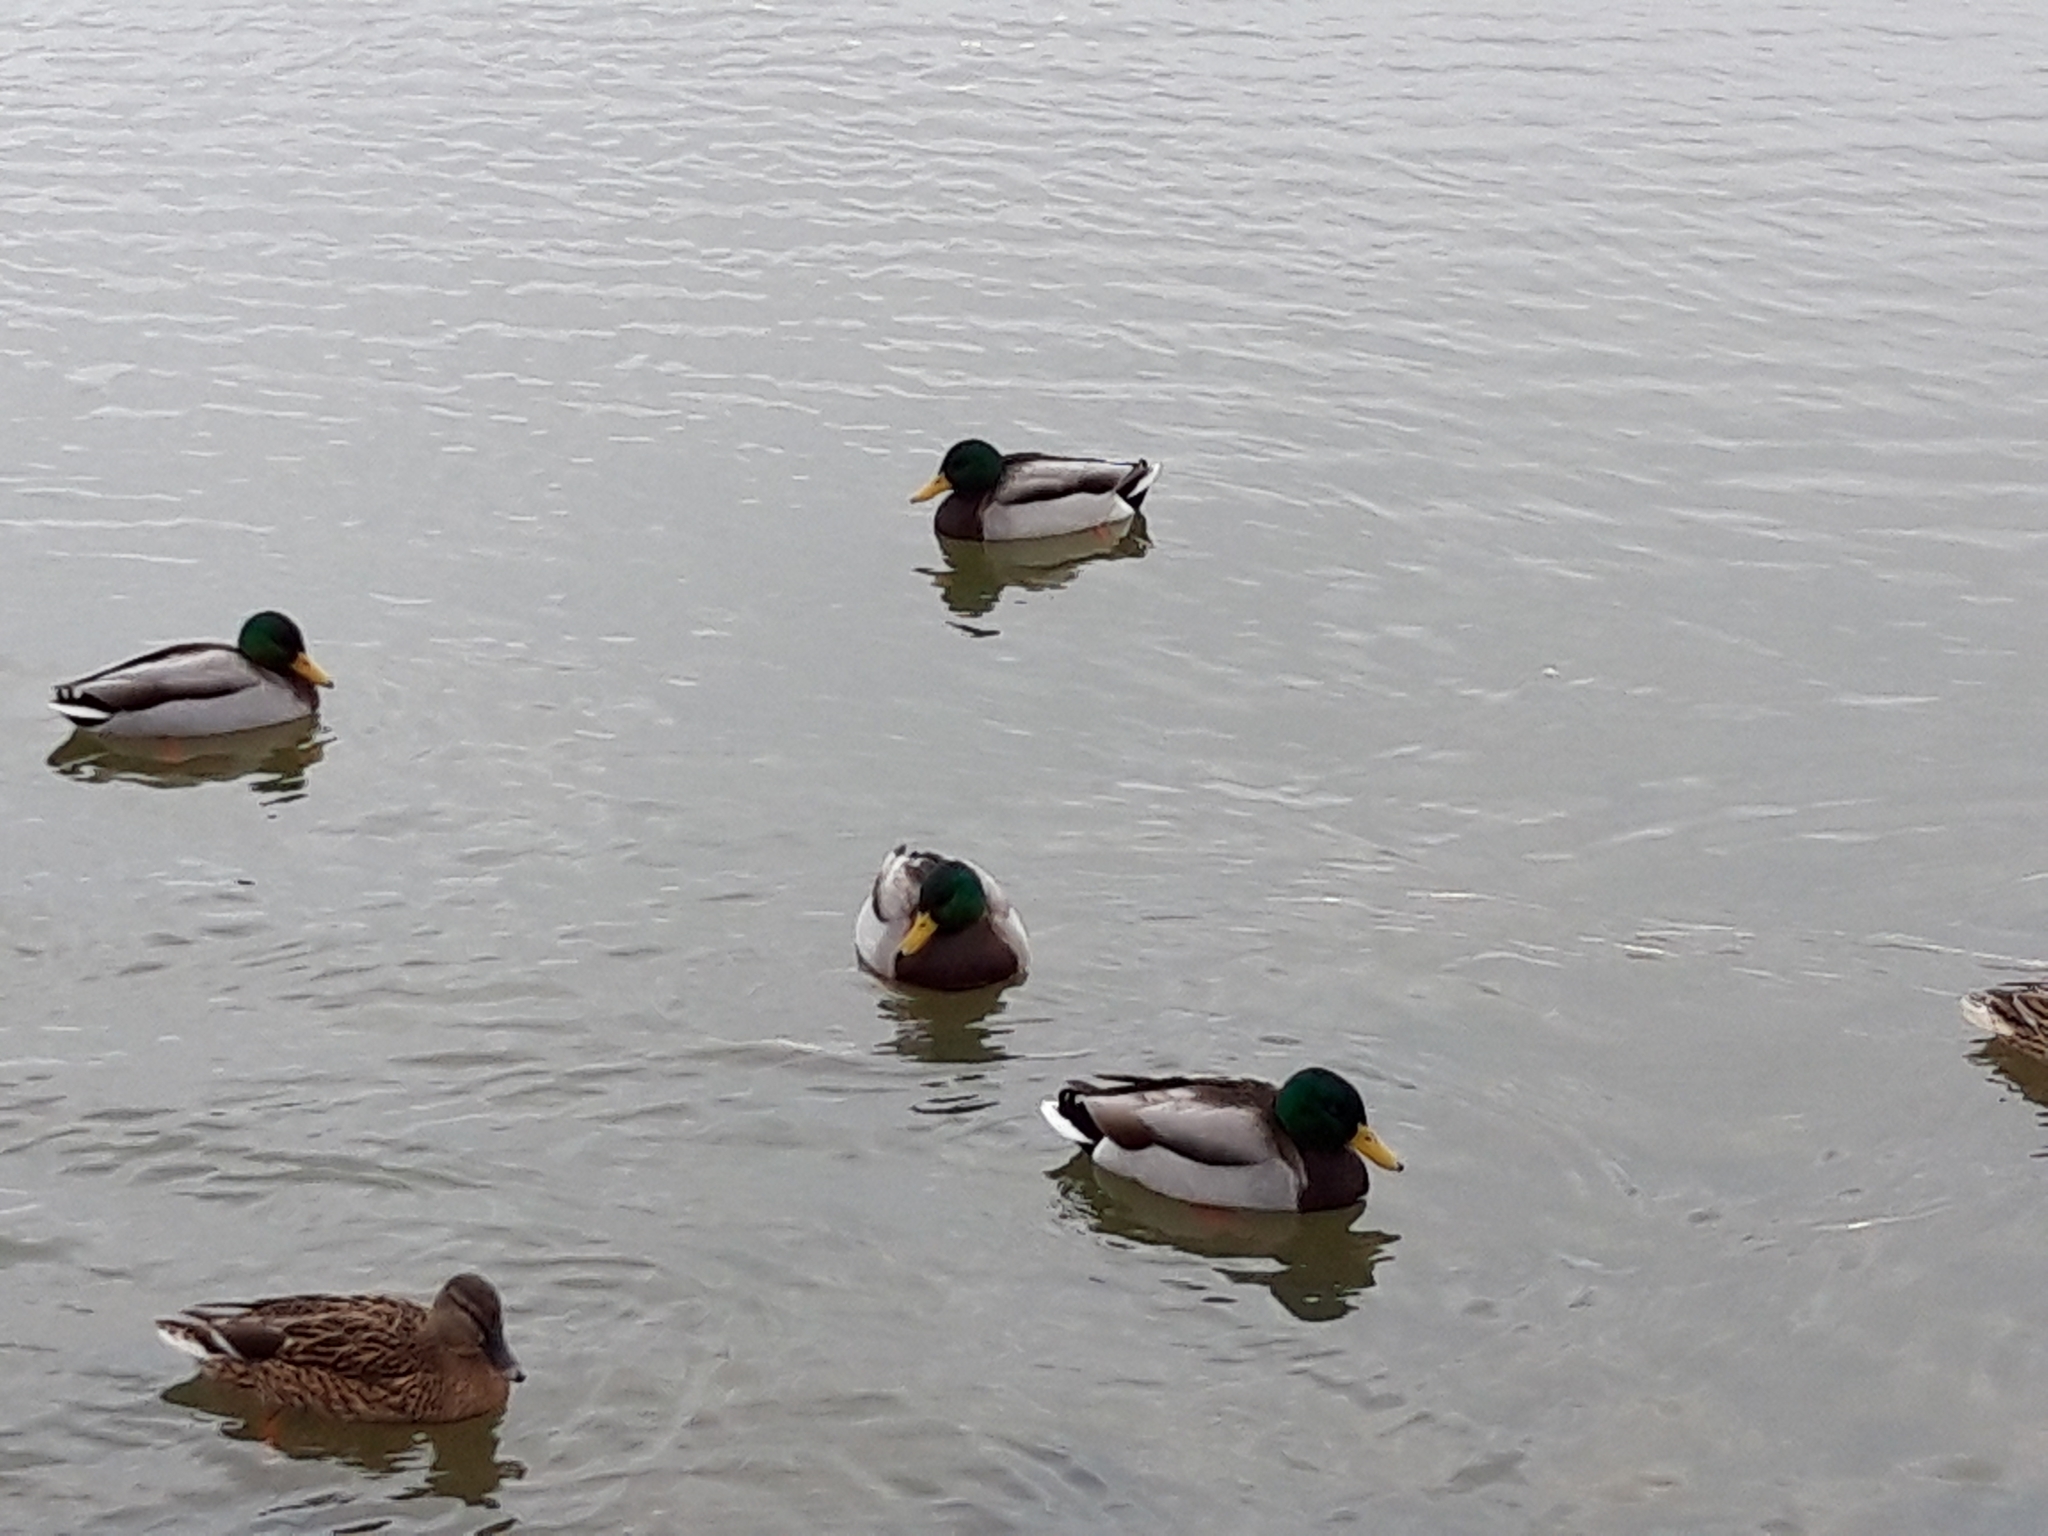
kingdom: Animalia
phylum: Chordata
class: Aves
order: Anseriformes
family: Anatidae
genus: Anas
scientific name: Anas platyrhynchos
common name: Mallard
